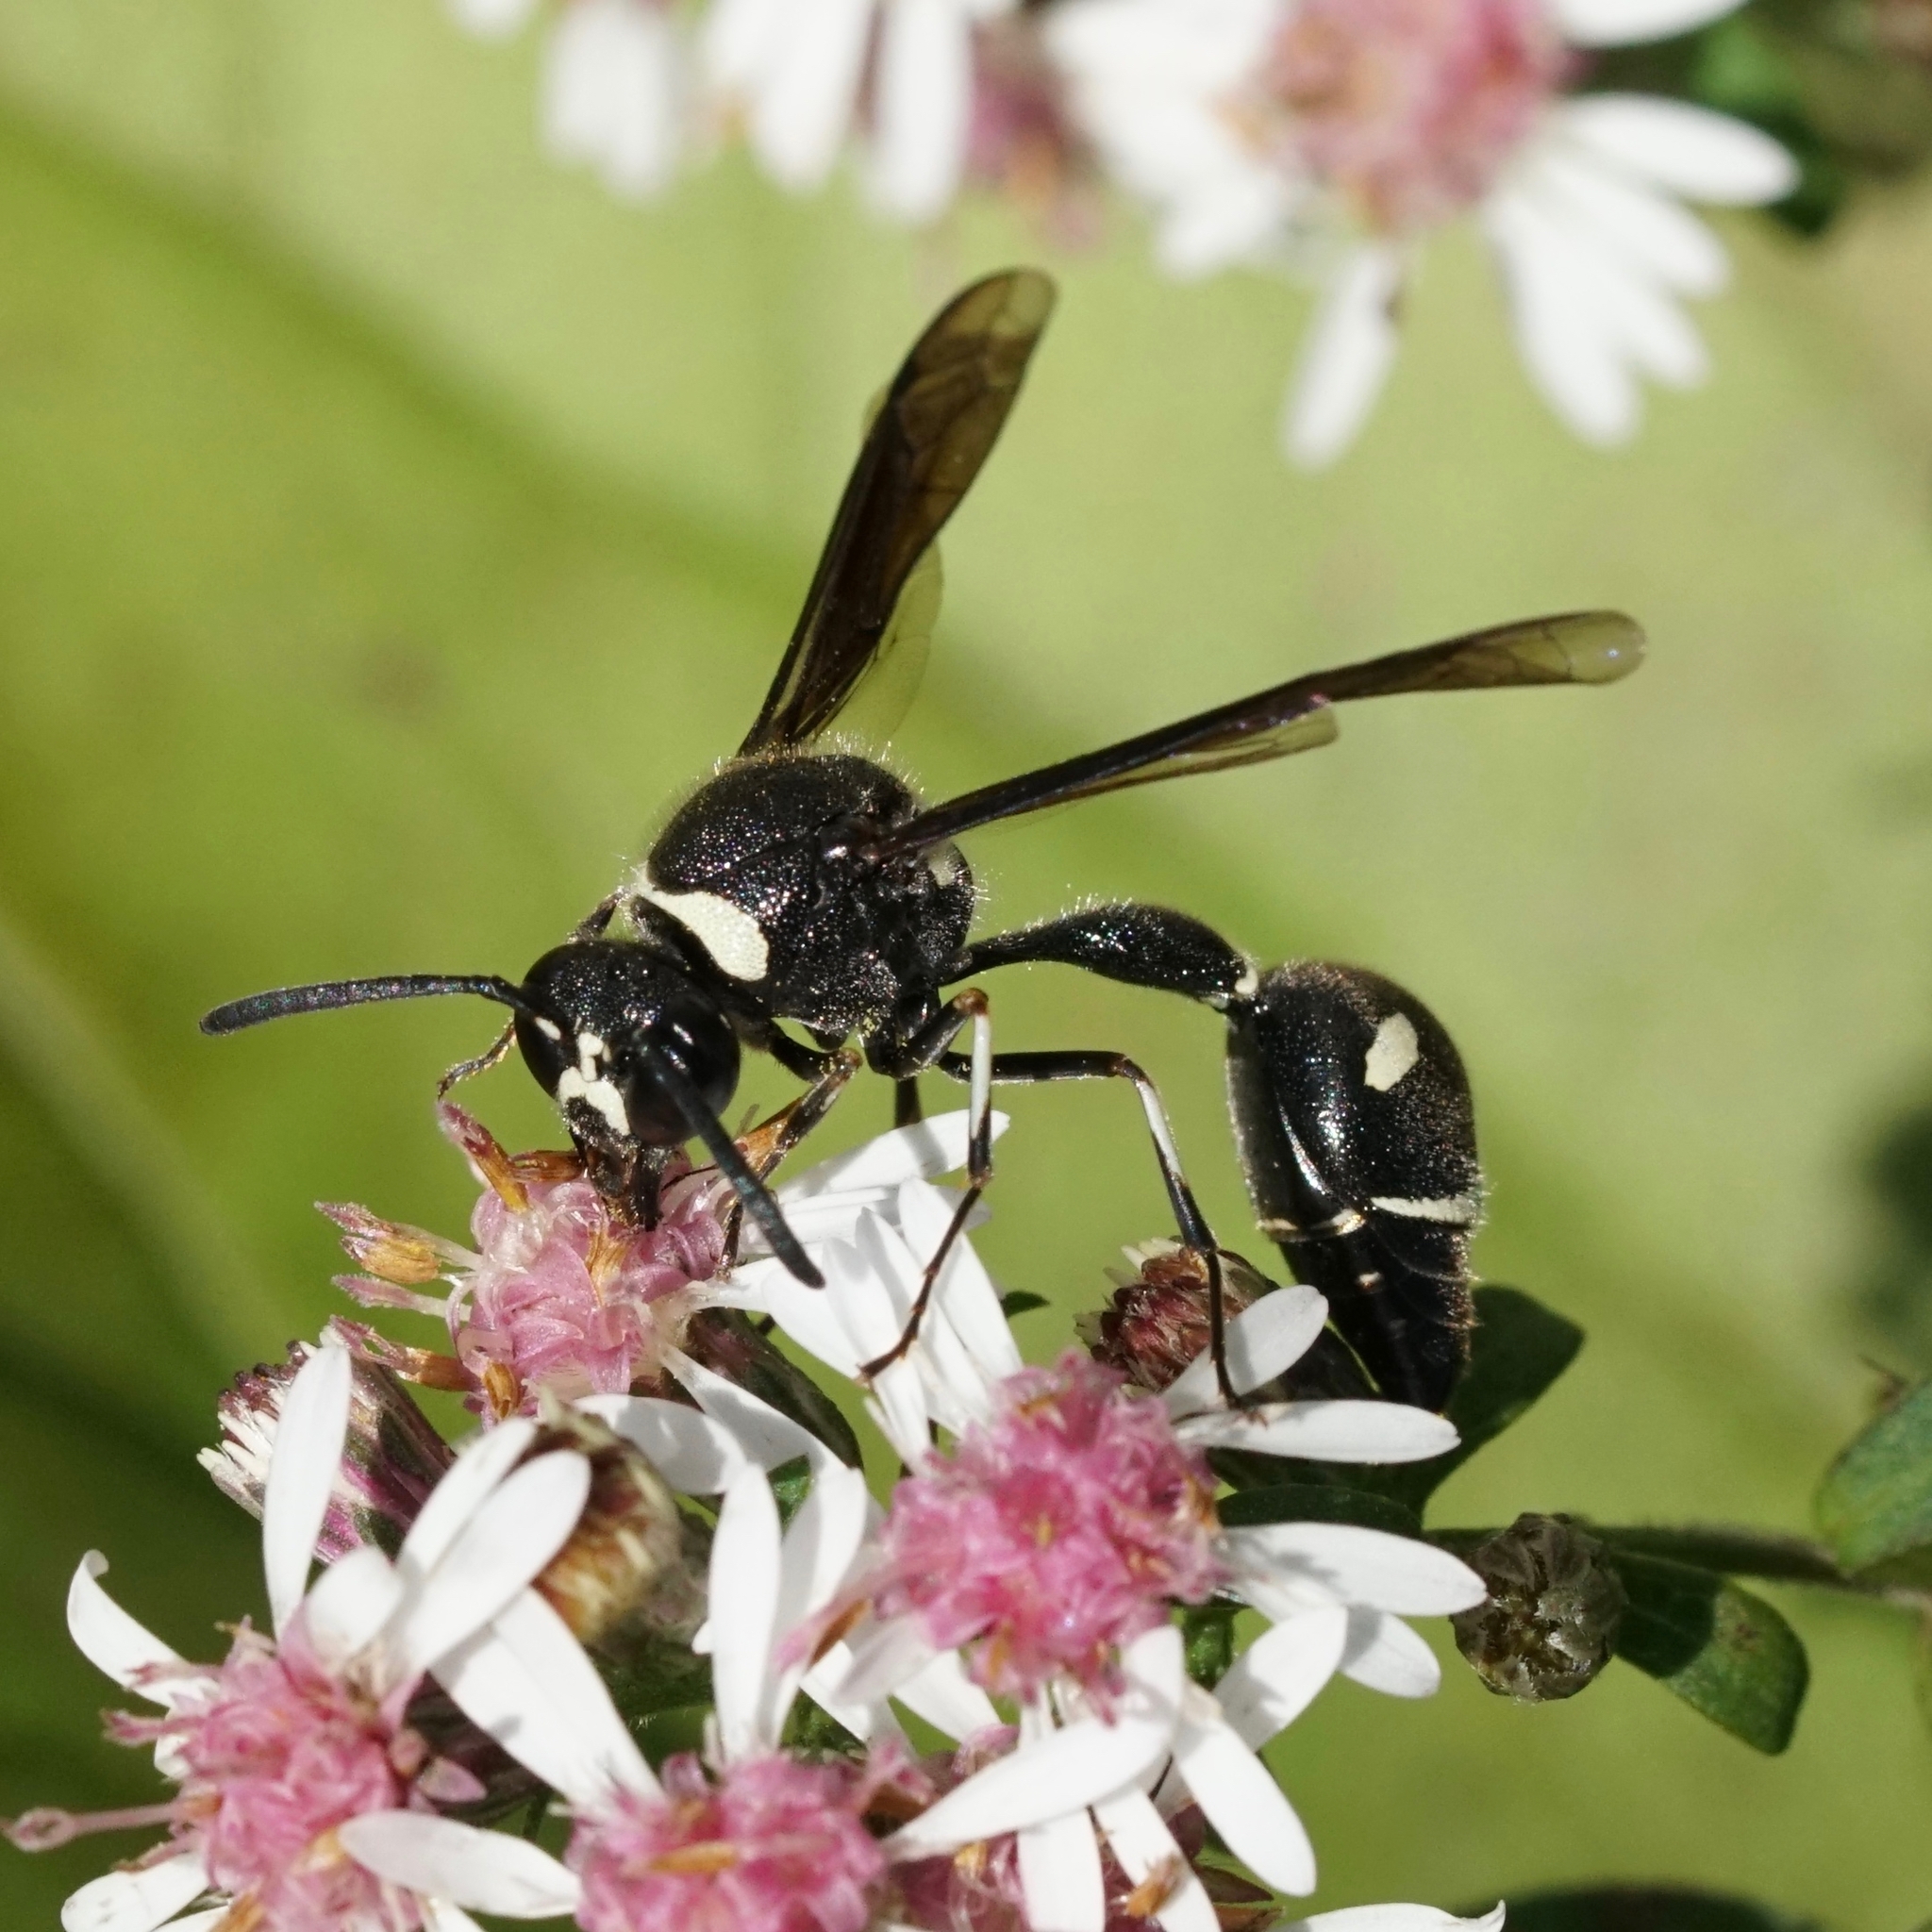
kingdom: Animalia
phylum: Arthropoda
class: Insecta
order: Hymenoptera
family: Vespidae
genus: Eumenes
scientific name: Eumenes fraternus
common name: Fraternal potter wasp
